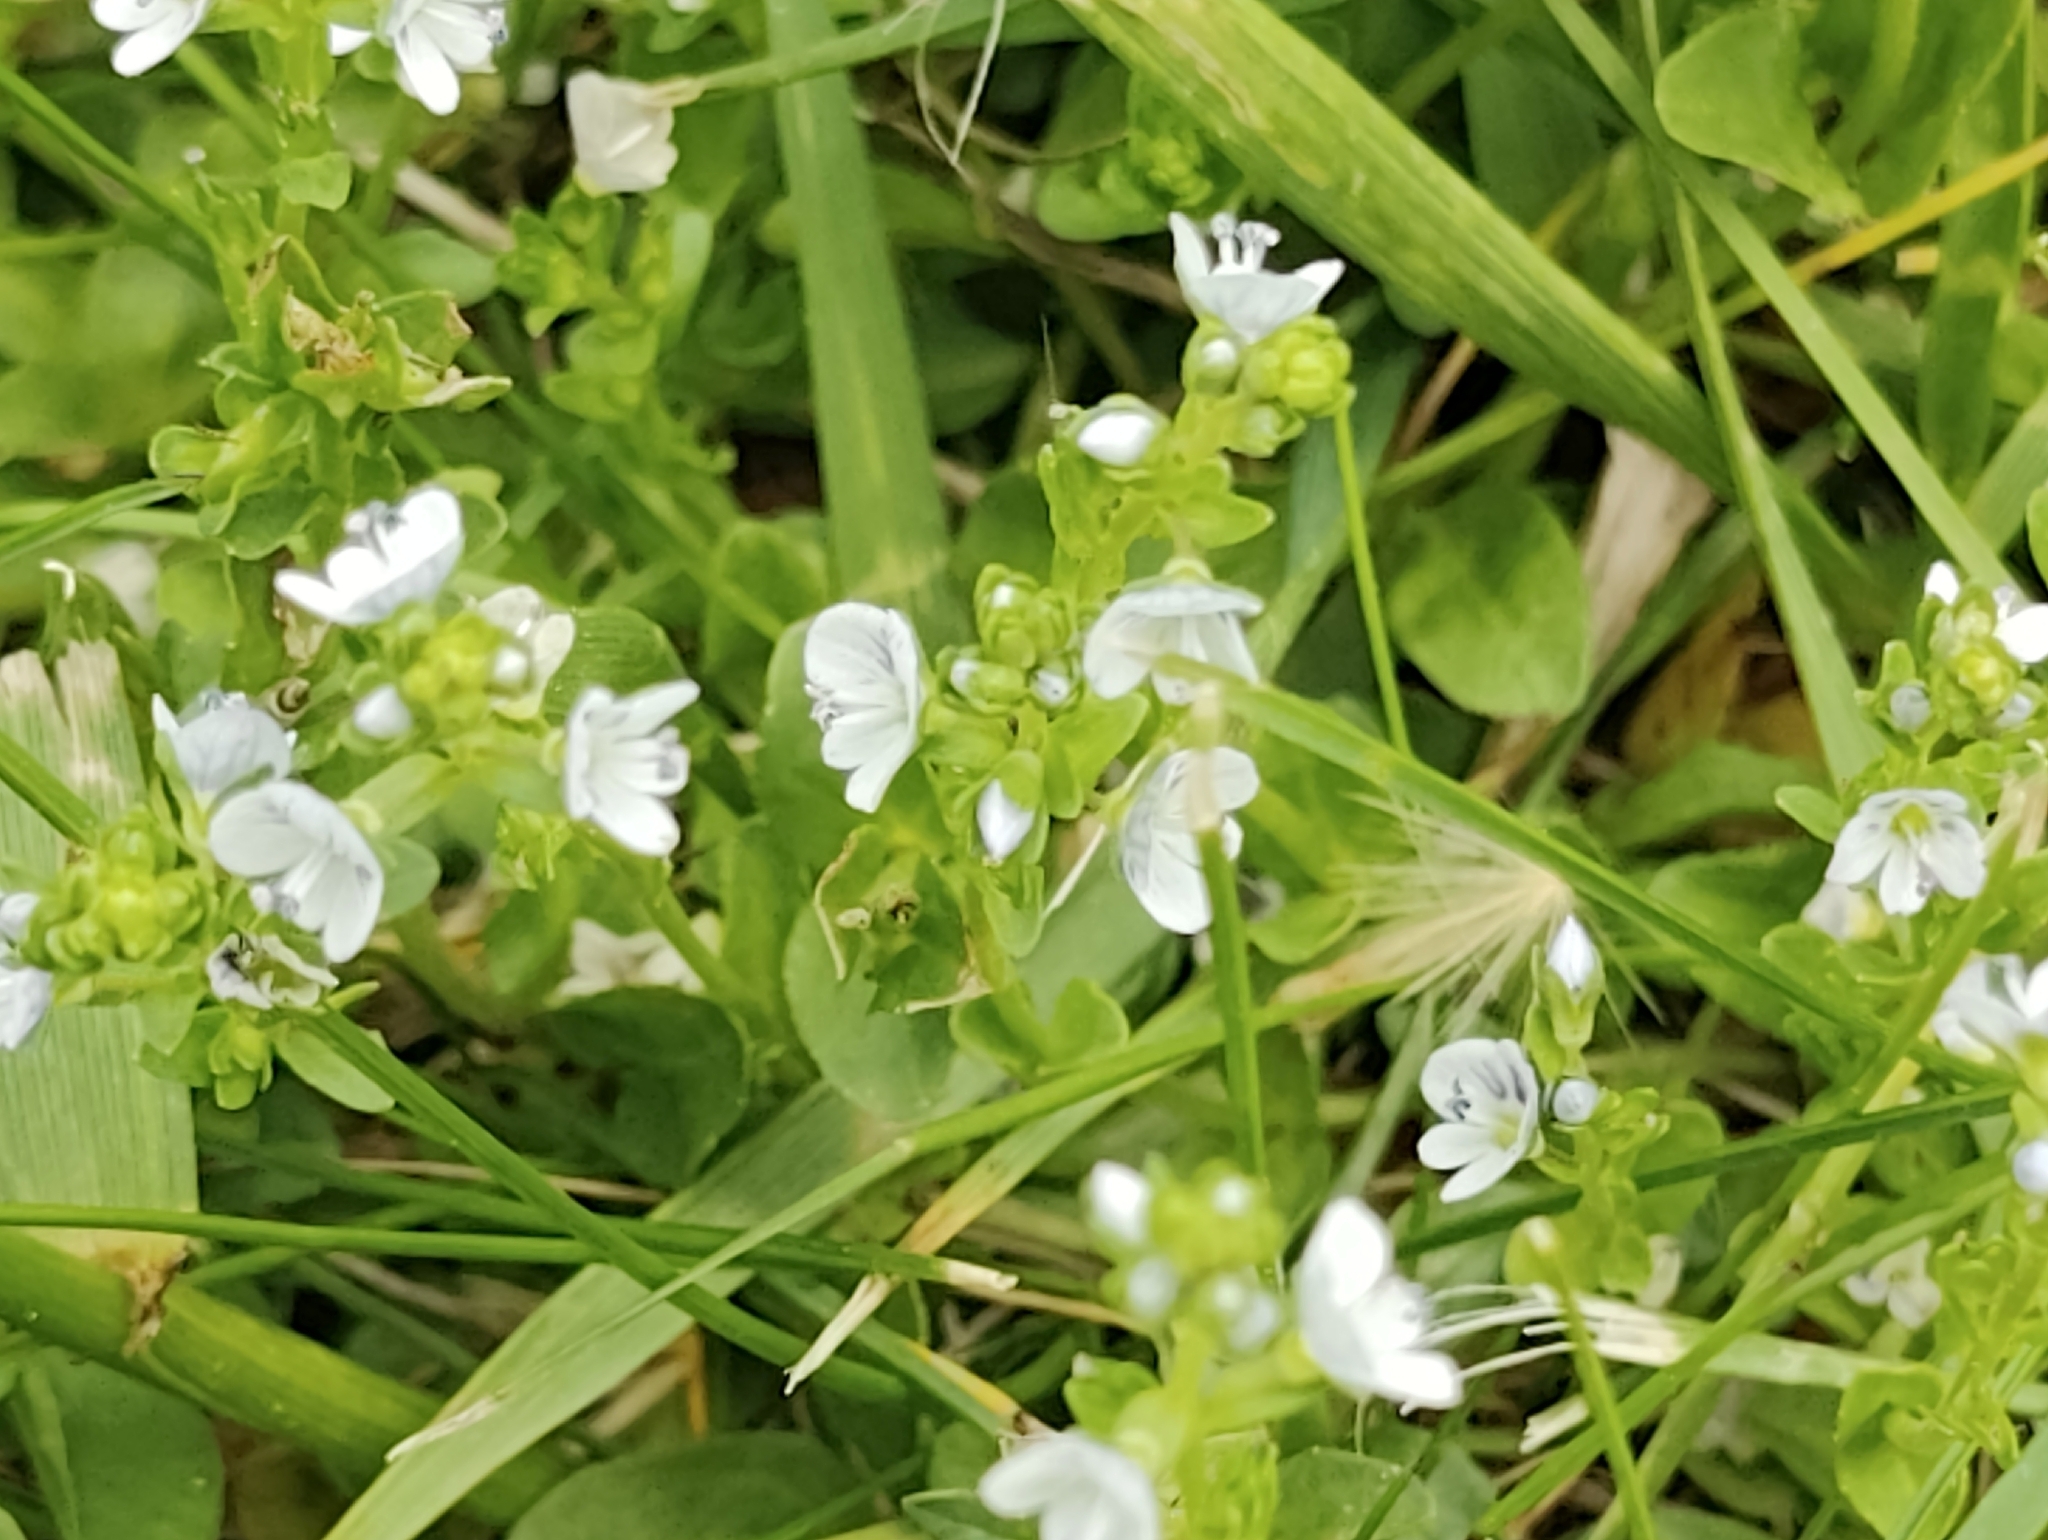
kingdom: Plantae
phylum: Tracheophyta
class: Magnoliopsida
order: Lamiales
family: Plantaginaceae
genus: Veronica
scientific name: Veronica serpyllifolia
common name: Thyme-leaved speedwell
